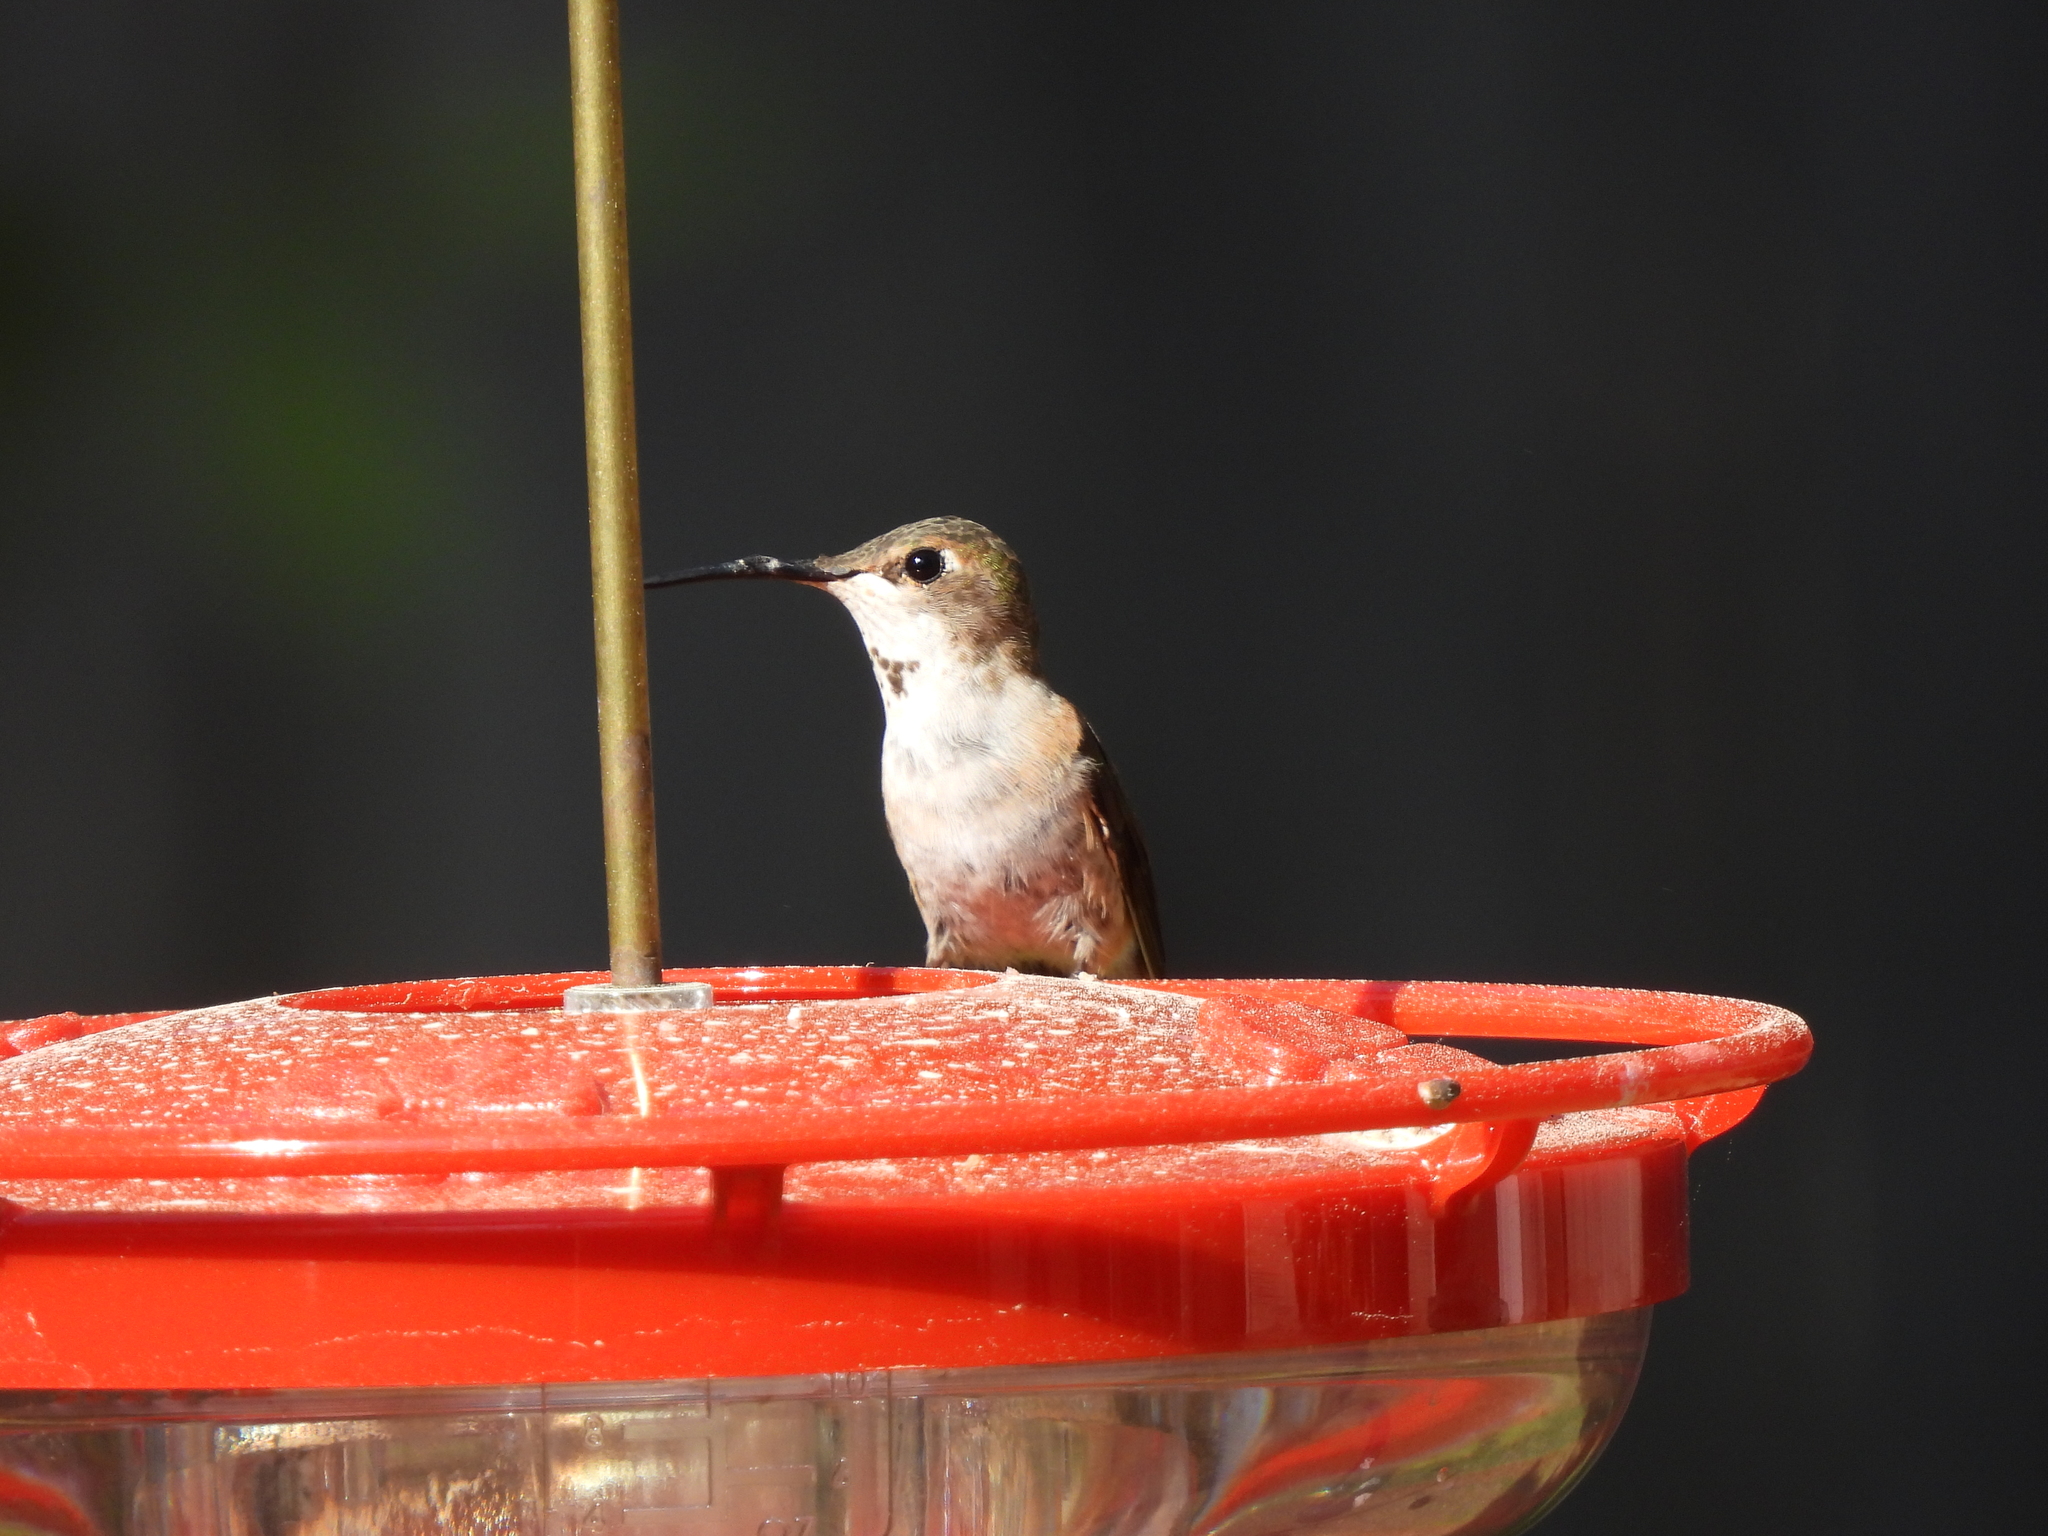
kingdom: Animalia
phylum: Chordata
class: Aves
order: Apodiformes
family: Trochilidae
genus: Selasphorus
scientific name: Selasphorus
